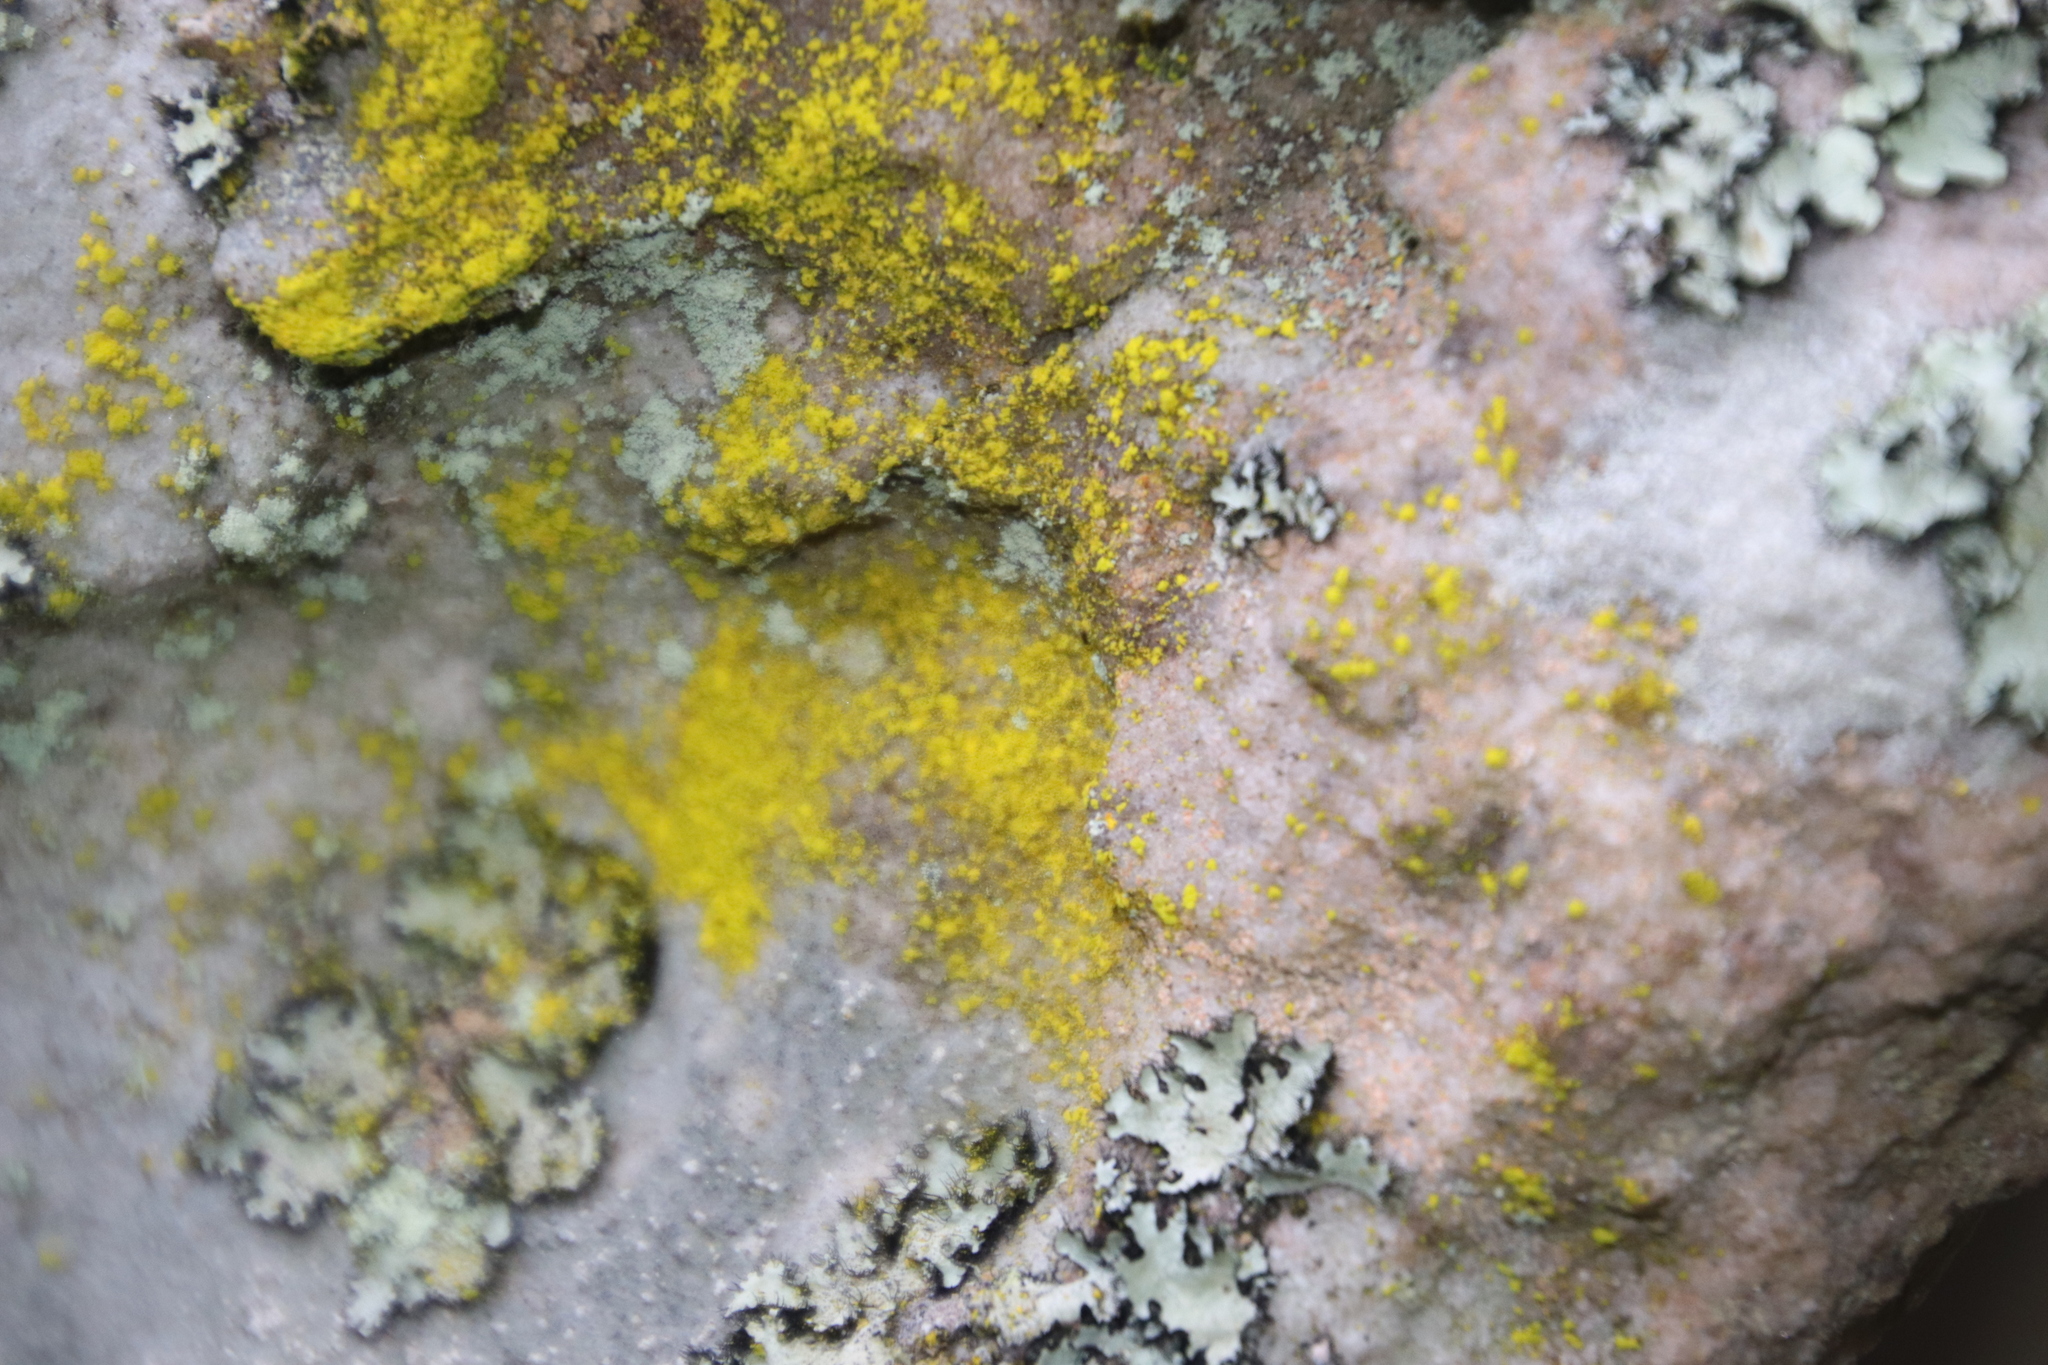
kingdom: Fungi
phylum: Ascomycota
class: Arthoniomycetes
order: Arthoniales
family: Chrysotrichaceae
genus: Chrysothrix
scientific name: Chrysothrix candelaris
